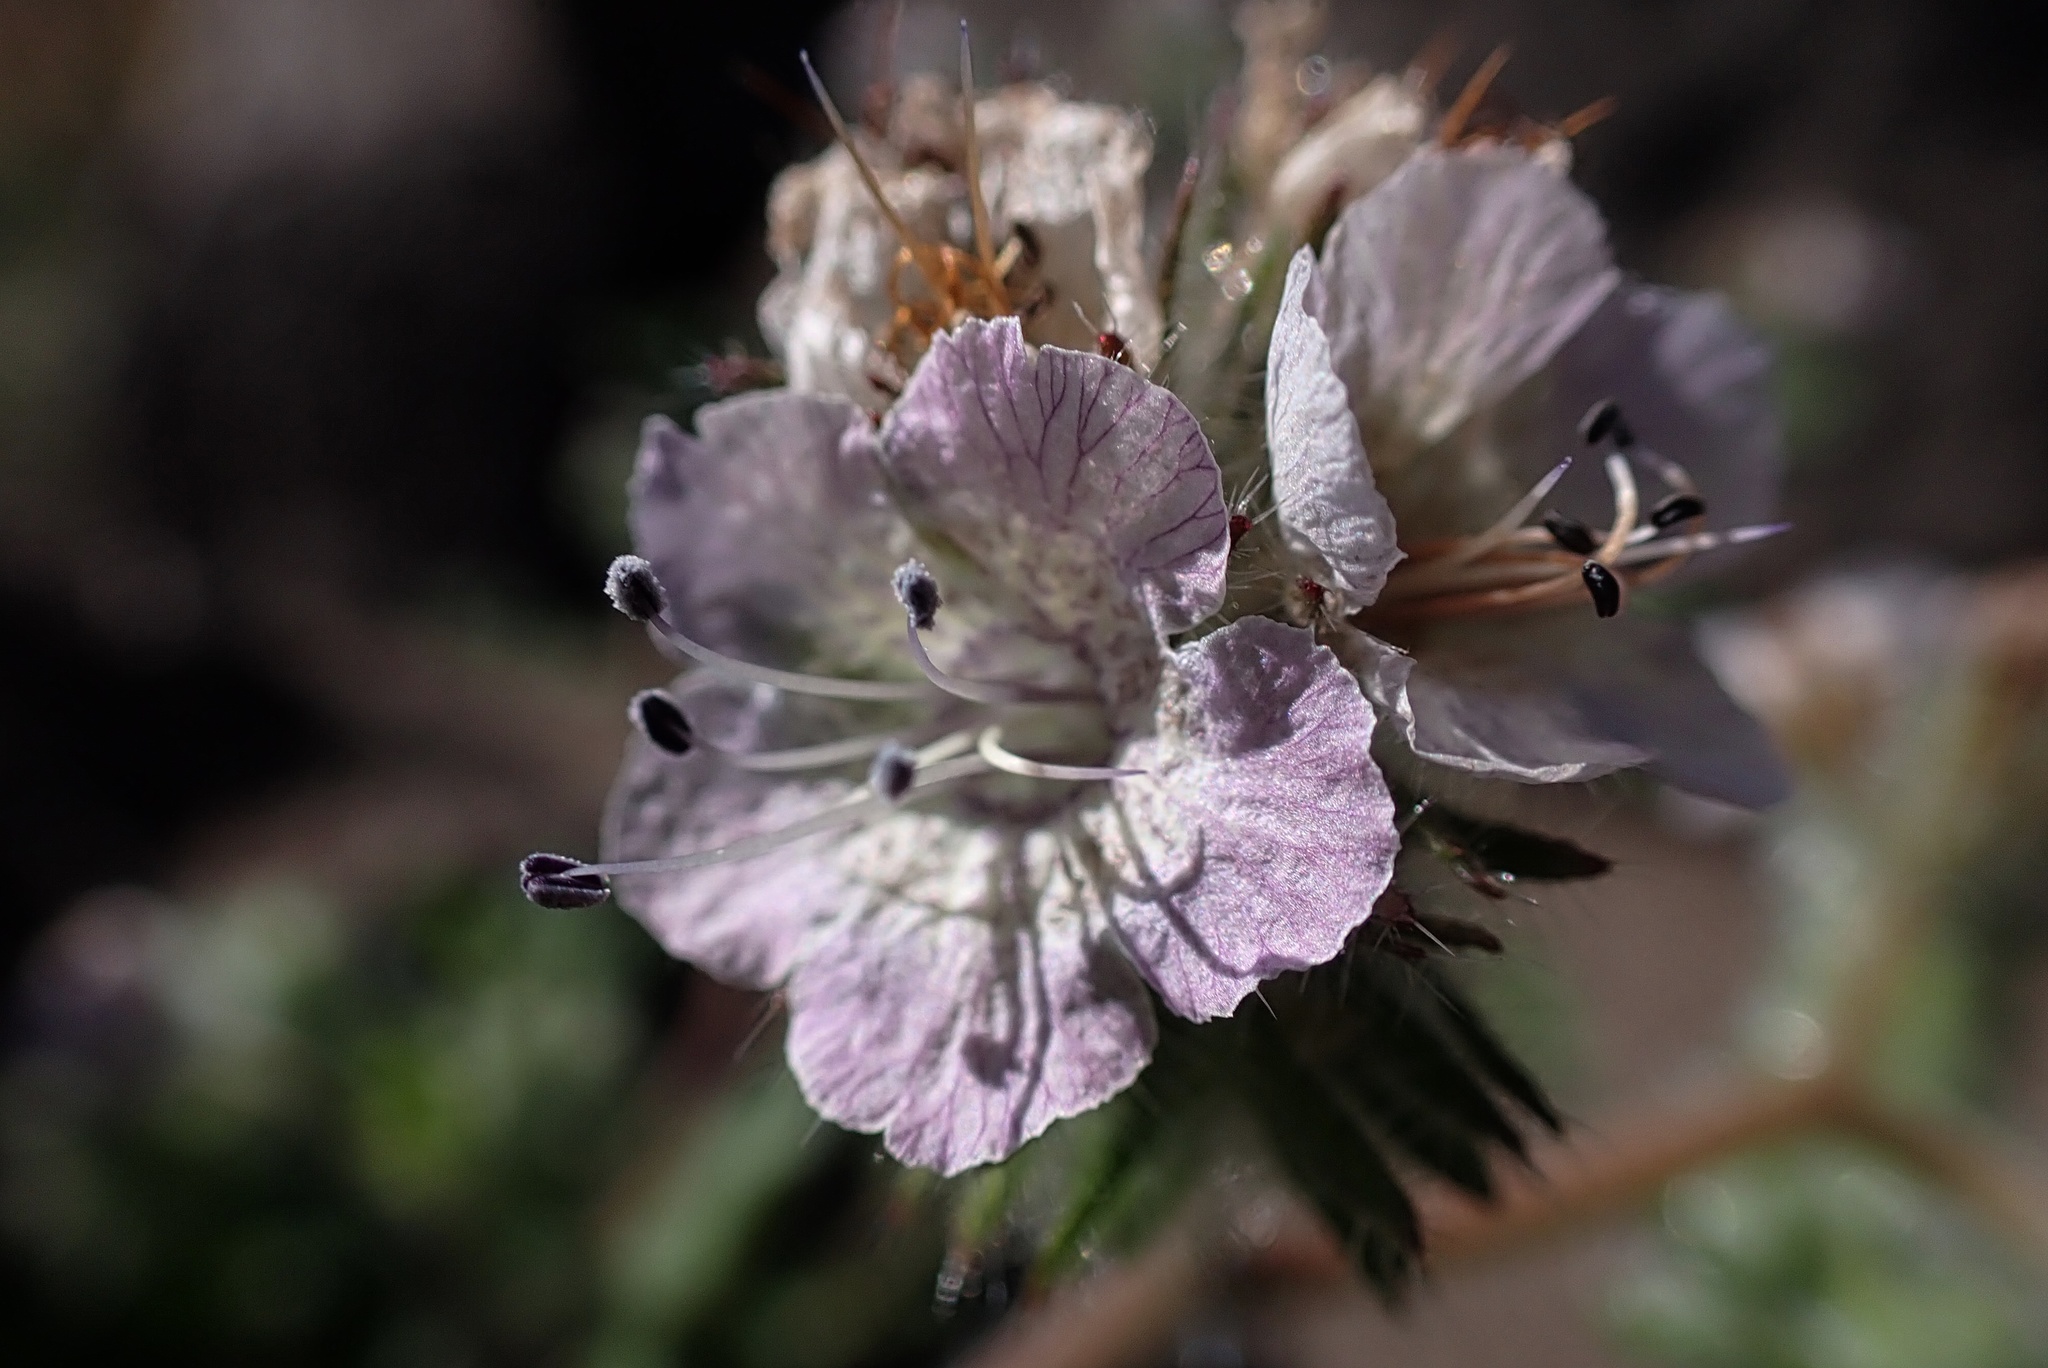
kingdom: Plantae
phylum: Tracheophyta
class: Magnoliopsida
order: Boraginales
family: Hydrophyllaceae
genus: Phacelia
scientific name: Phacelia cicutaria
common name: Caterpillar phacelia
